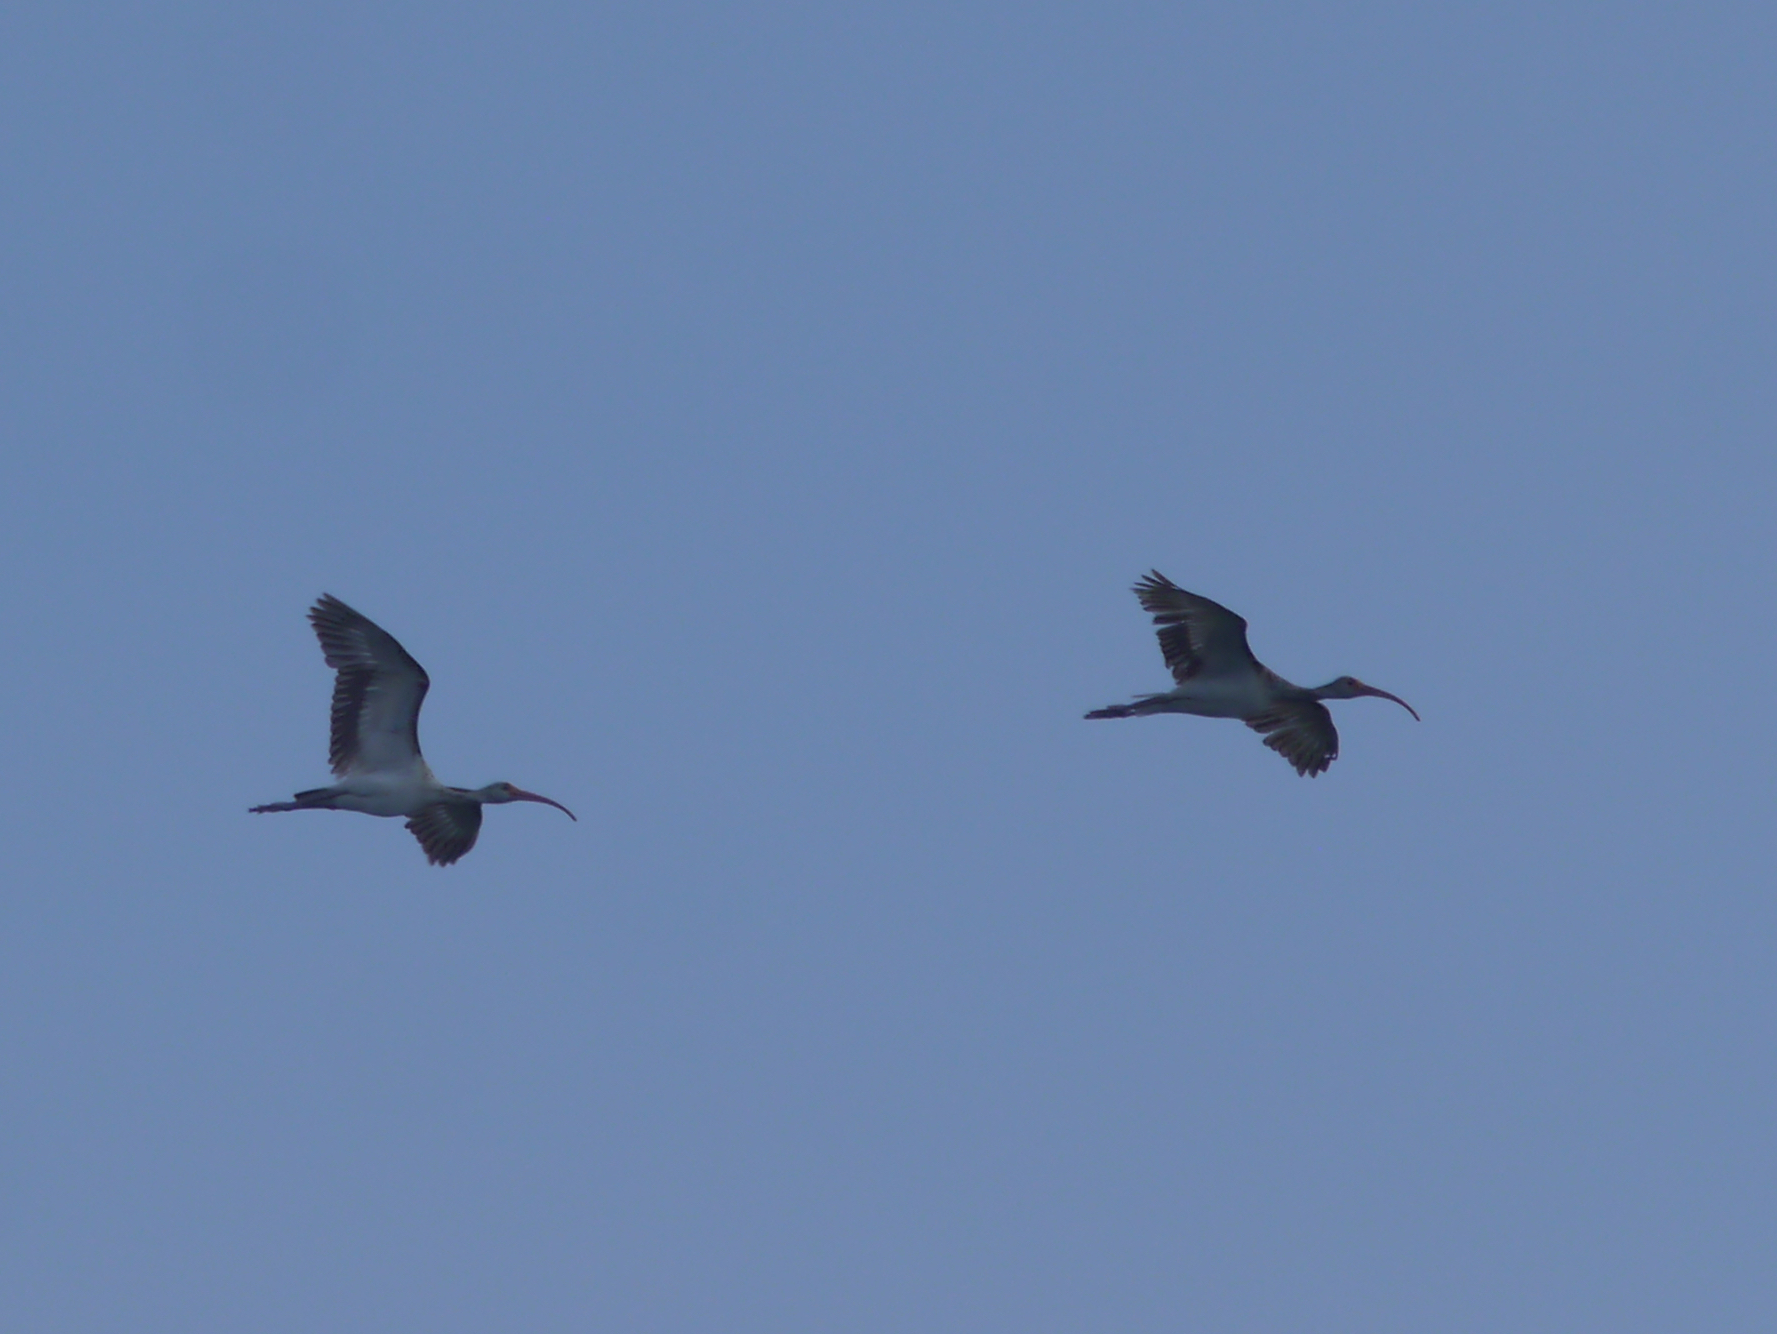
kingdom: Animalia
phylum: Chordata
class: Aves
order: Pelecaniformes
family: Threskiornithidae
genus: Eudocimus
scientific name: Eudocimus albus
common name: White ibis
